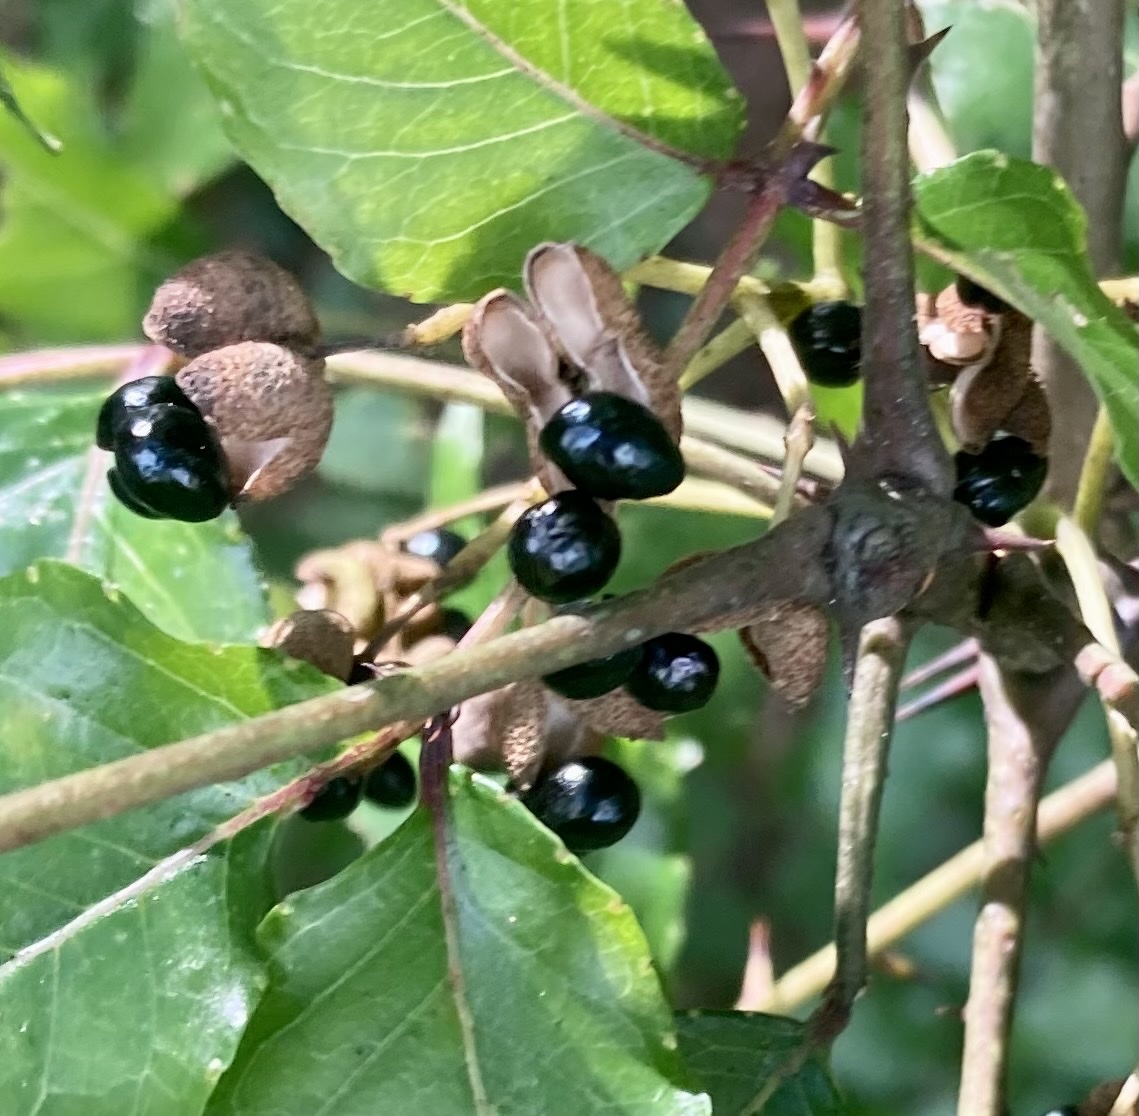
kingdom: Plantae
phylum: Tracheophyta
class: Magnoliopsida
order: Sapindales
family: Rutaceae
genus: Zanthoxylum
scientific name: Zanthoxylum clava-herculis
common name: Hercules'-club
